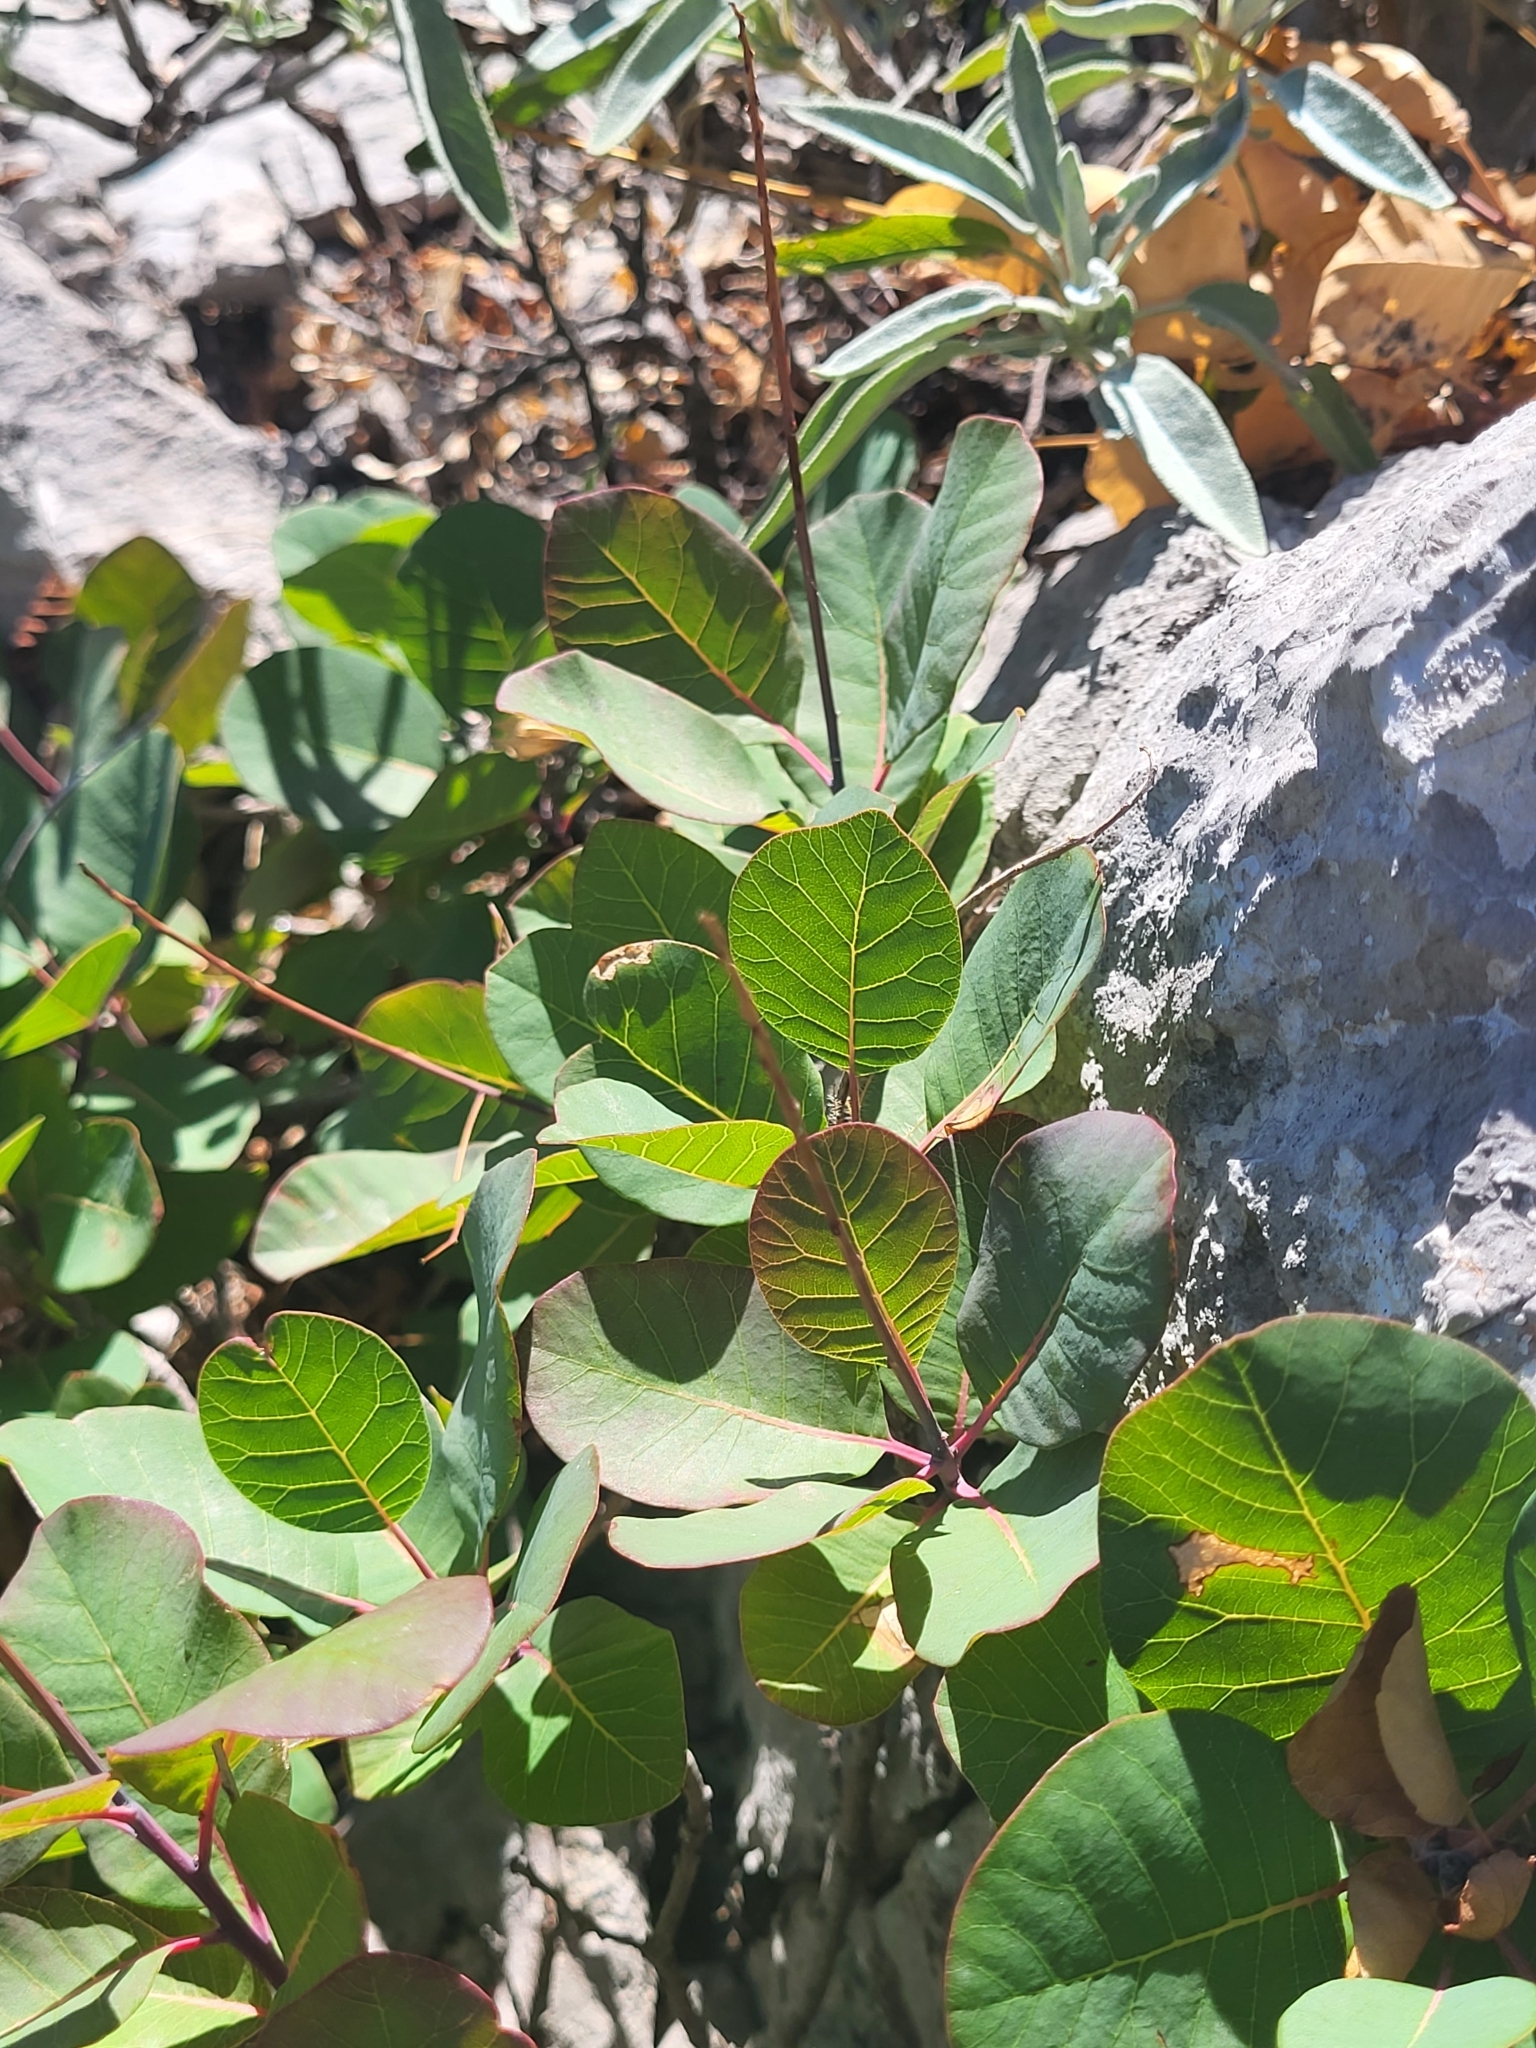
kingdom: Plantae
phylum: Tracheophyta
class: Magnoliopsida
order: Sapindales
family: Anacardiaceae
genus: Cotinus
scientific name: Cotinus coggygria
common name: Smoke-tree
